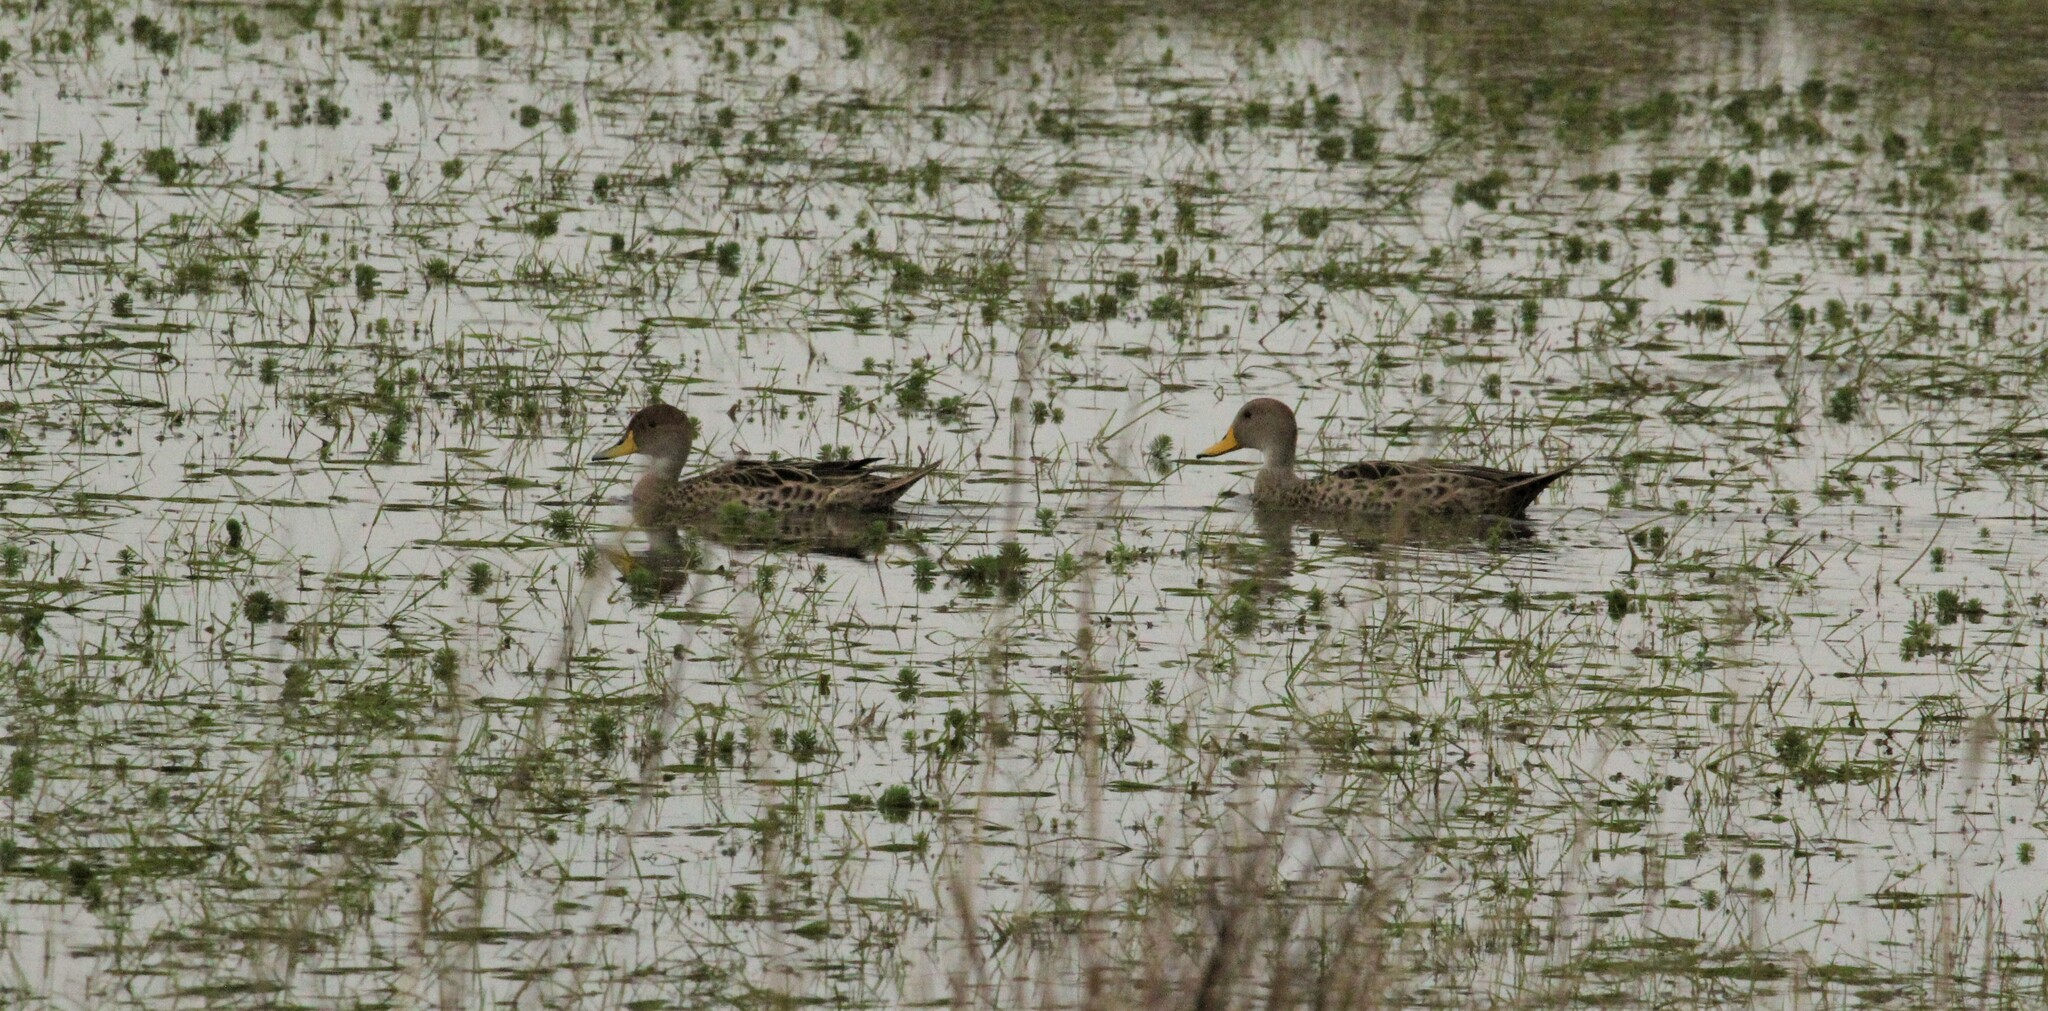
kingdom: Animalia
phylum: Chordata
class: Aves
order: Anseriformes
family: Anatidae
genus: Anas
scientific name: Anas georgica
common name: Yellow-billed pintail
